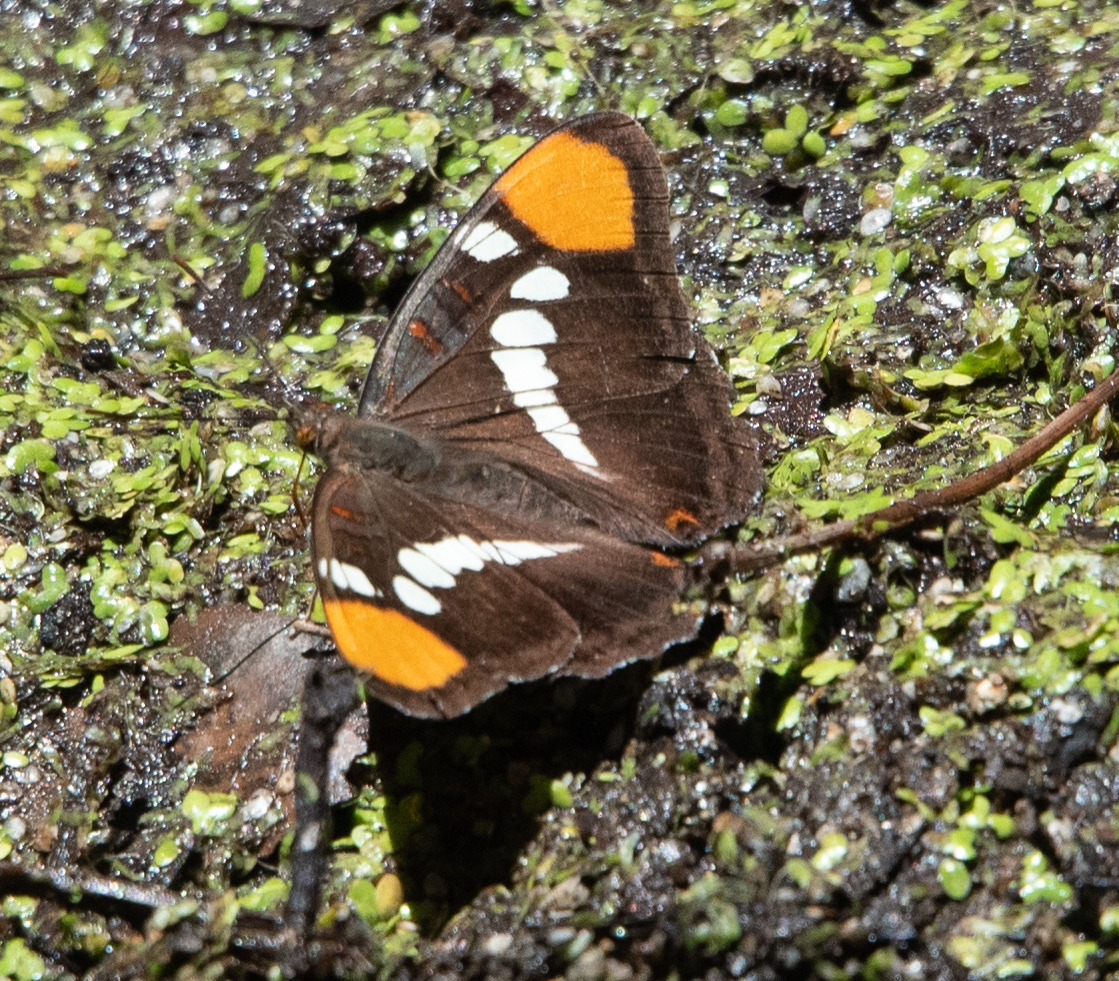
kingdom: Animalia
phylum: Arthropoda
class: Insecta
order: Lepidoptera
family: Nymphalidae
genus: Limenitis
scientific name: Limenitis bredowii
